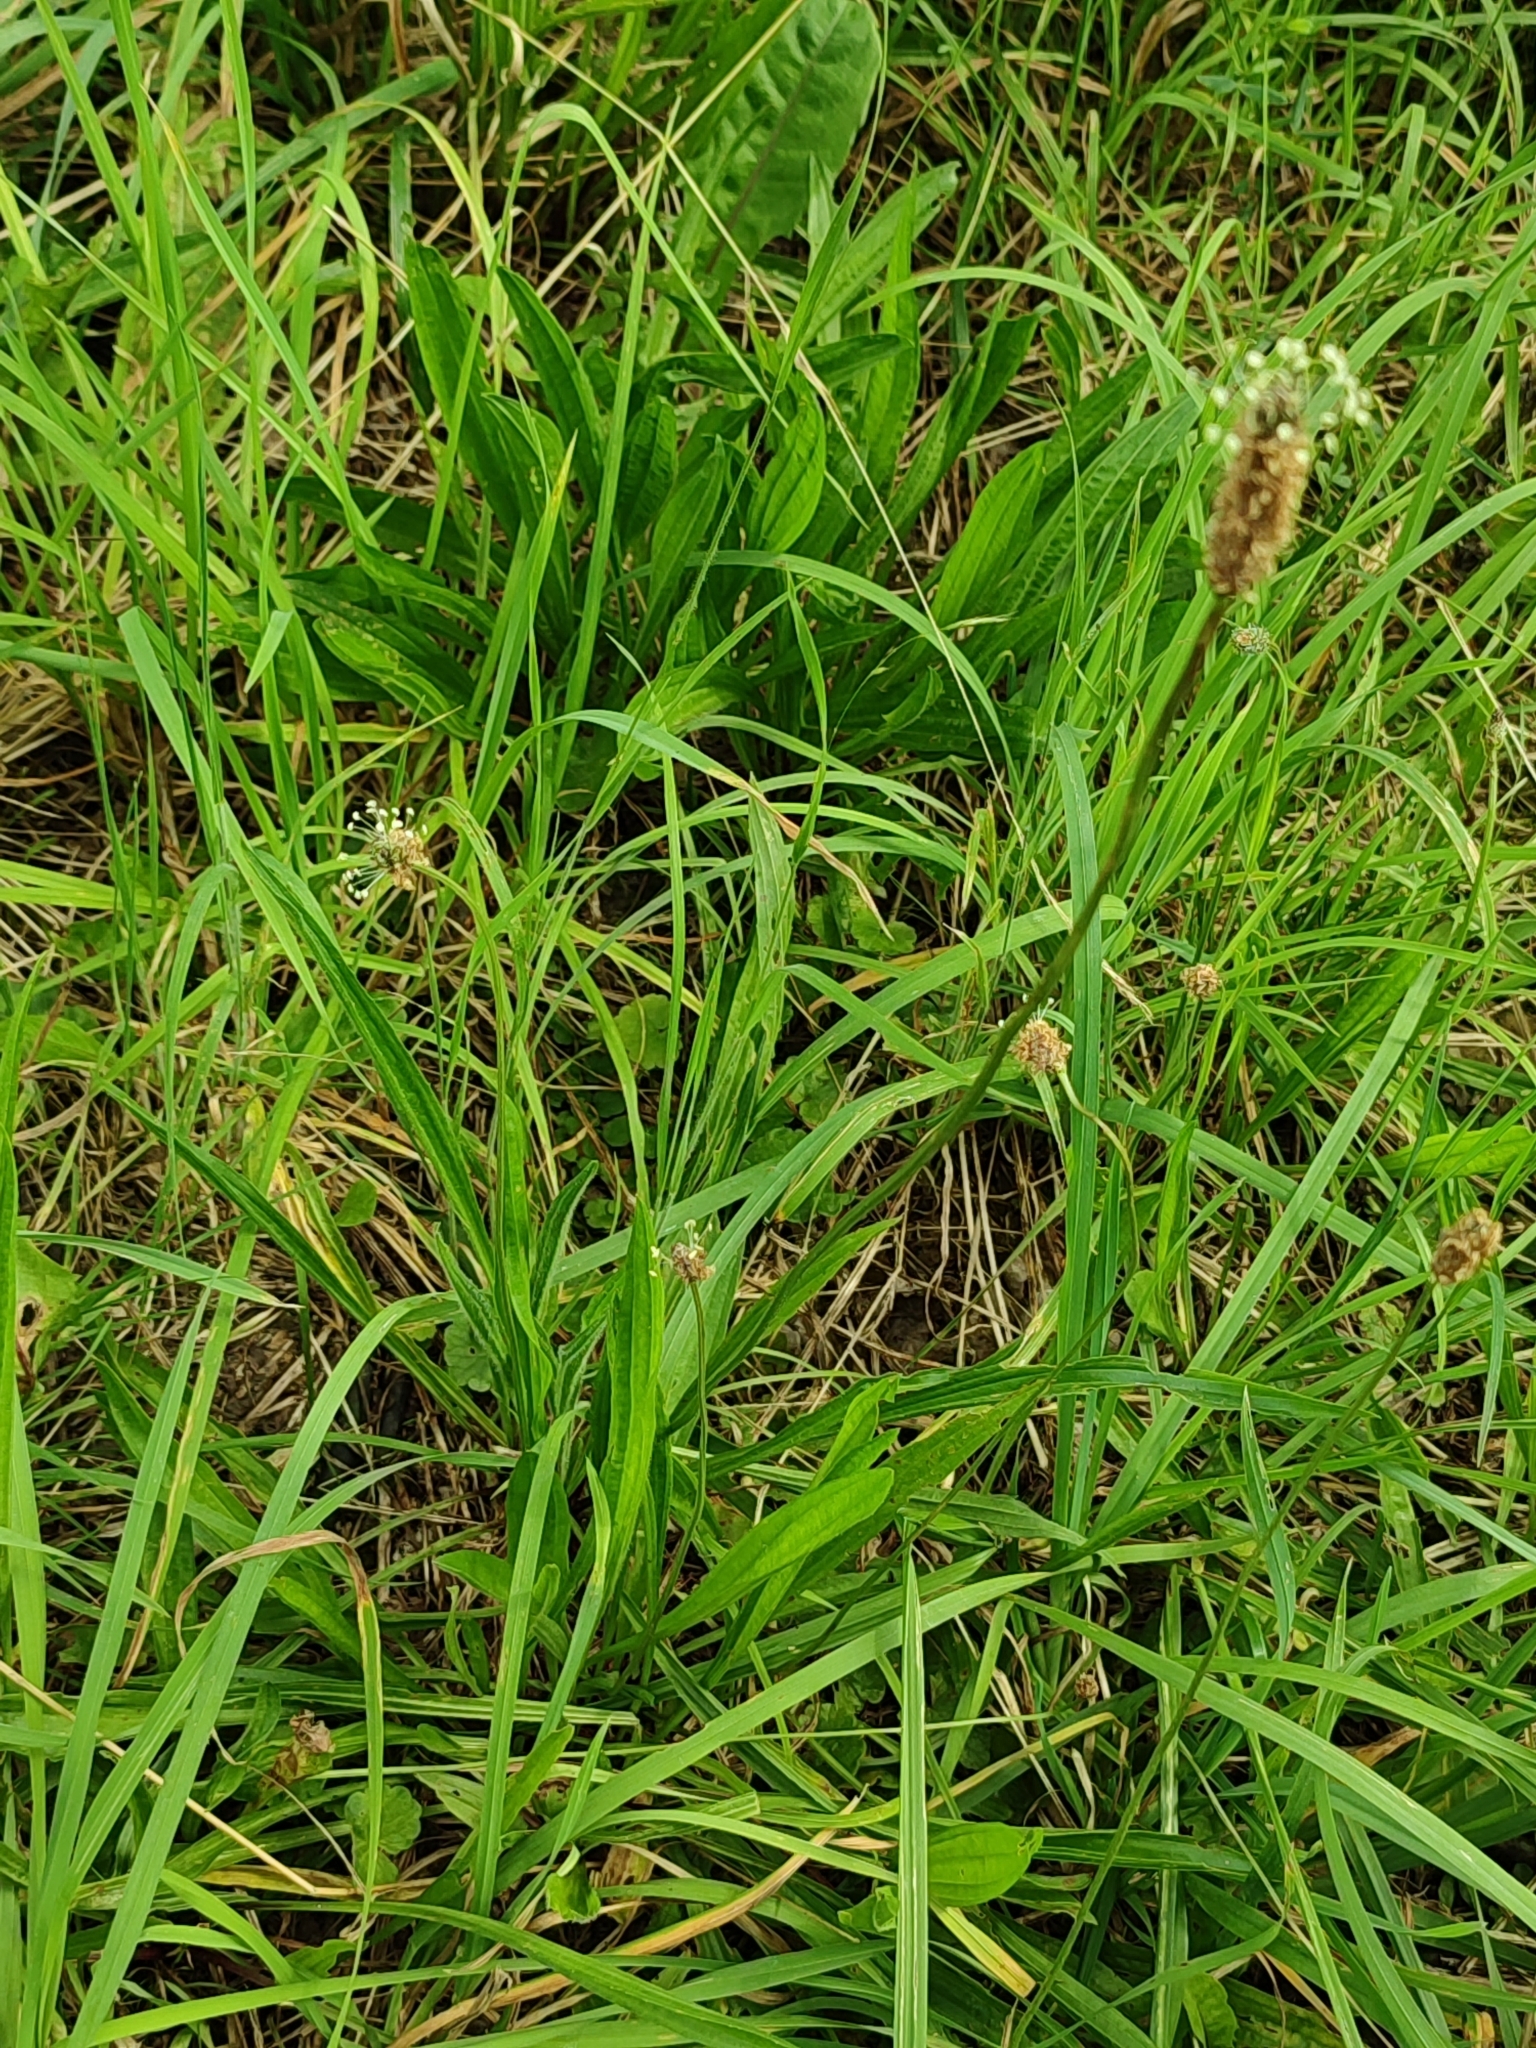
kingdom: Plantae
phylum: Tracheophyta
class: Magnoliopsida
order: Lamiales
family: Plantaginaceae
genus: Plantago
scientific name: Plantago lanceolata
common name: Ribwort plantain
